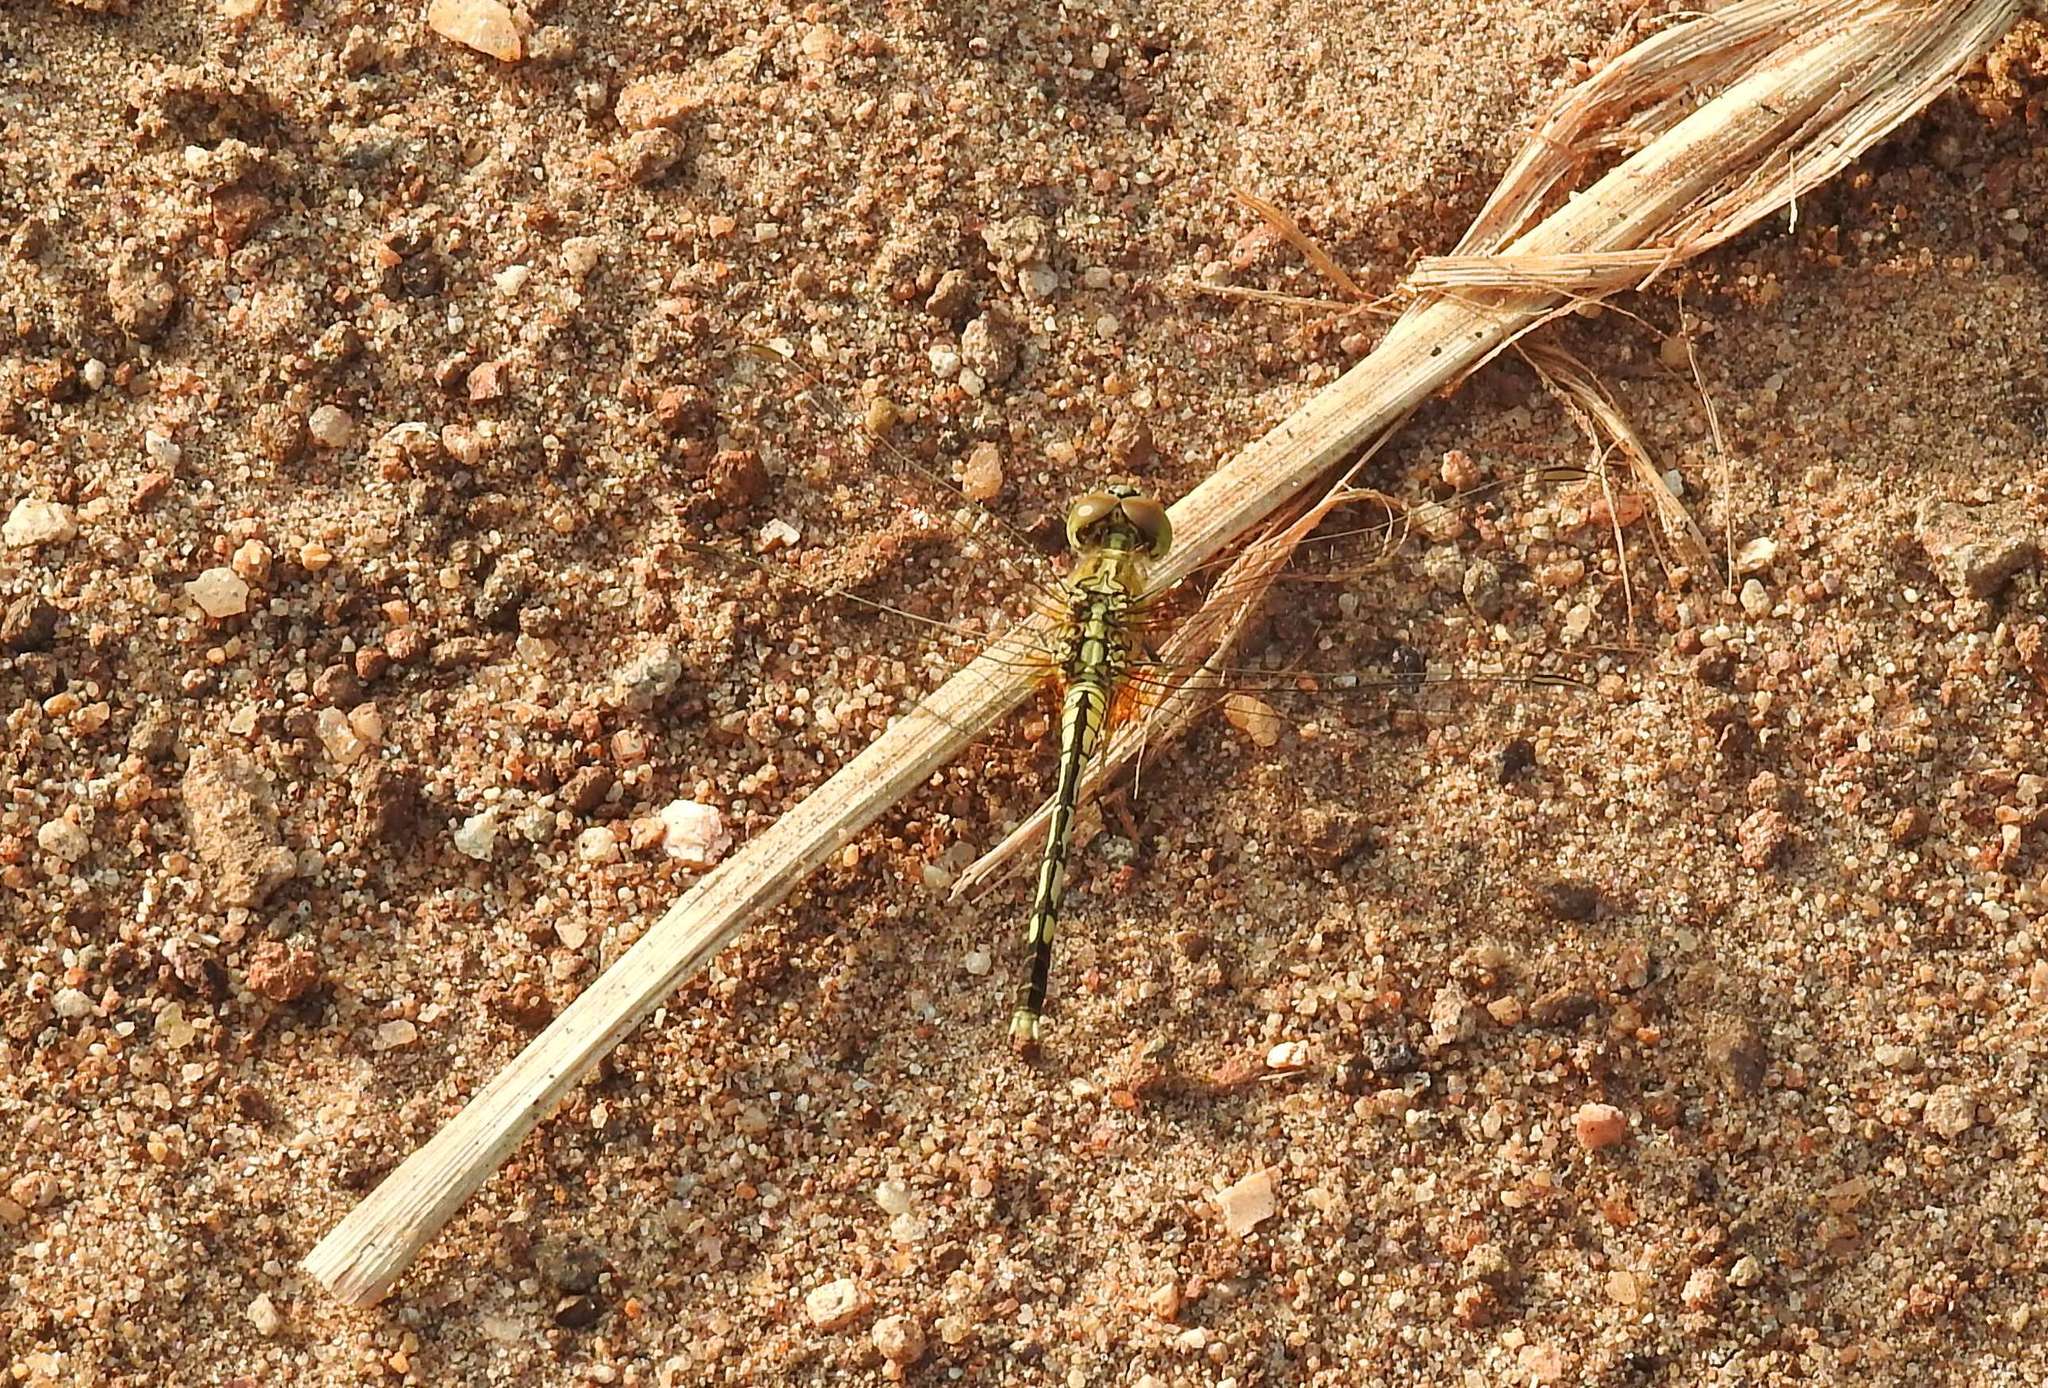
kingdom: Animalia
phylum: Arthropoda
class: Insecta
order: Odonata
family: Libellulidae
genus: Diplacodes
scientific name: Diplacodes trivialis
